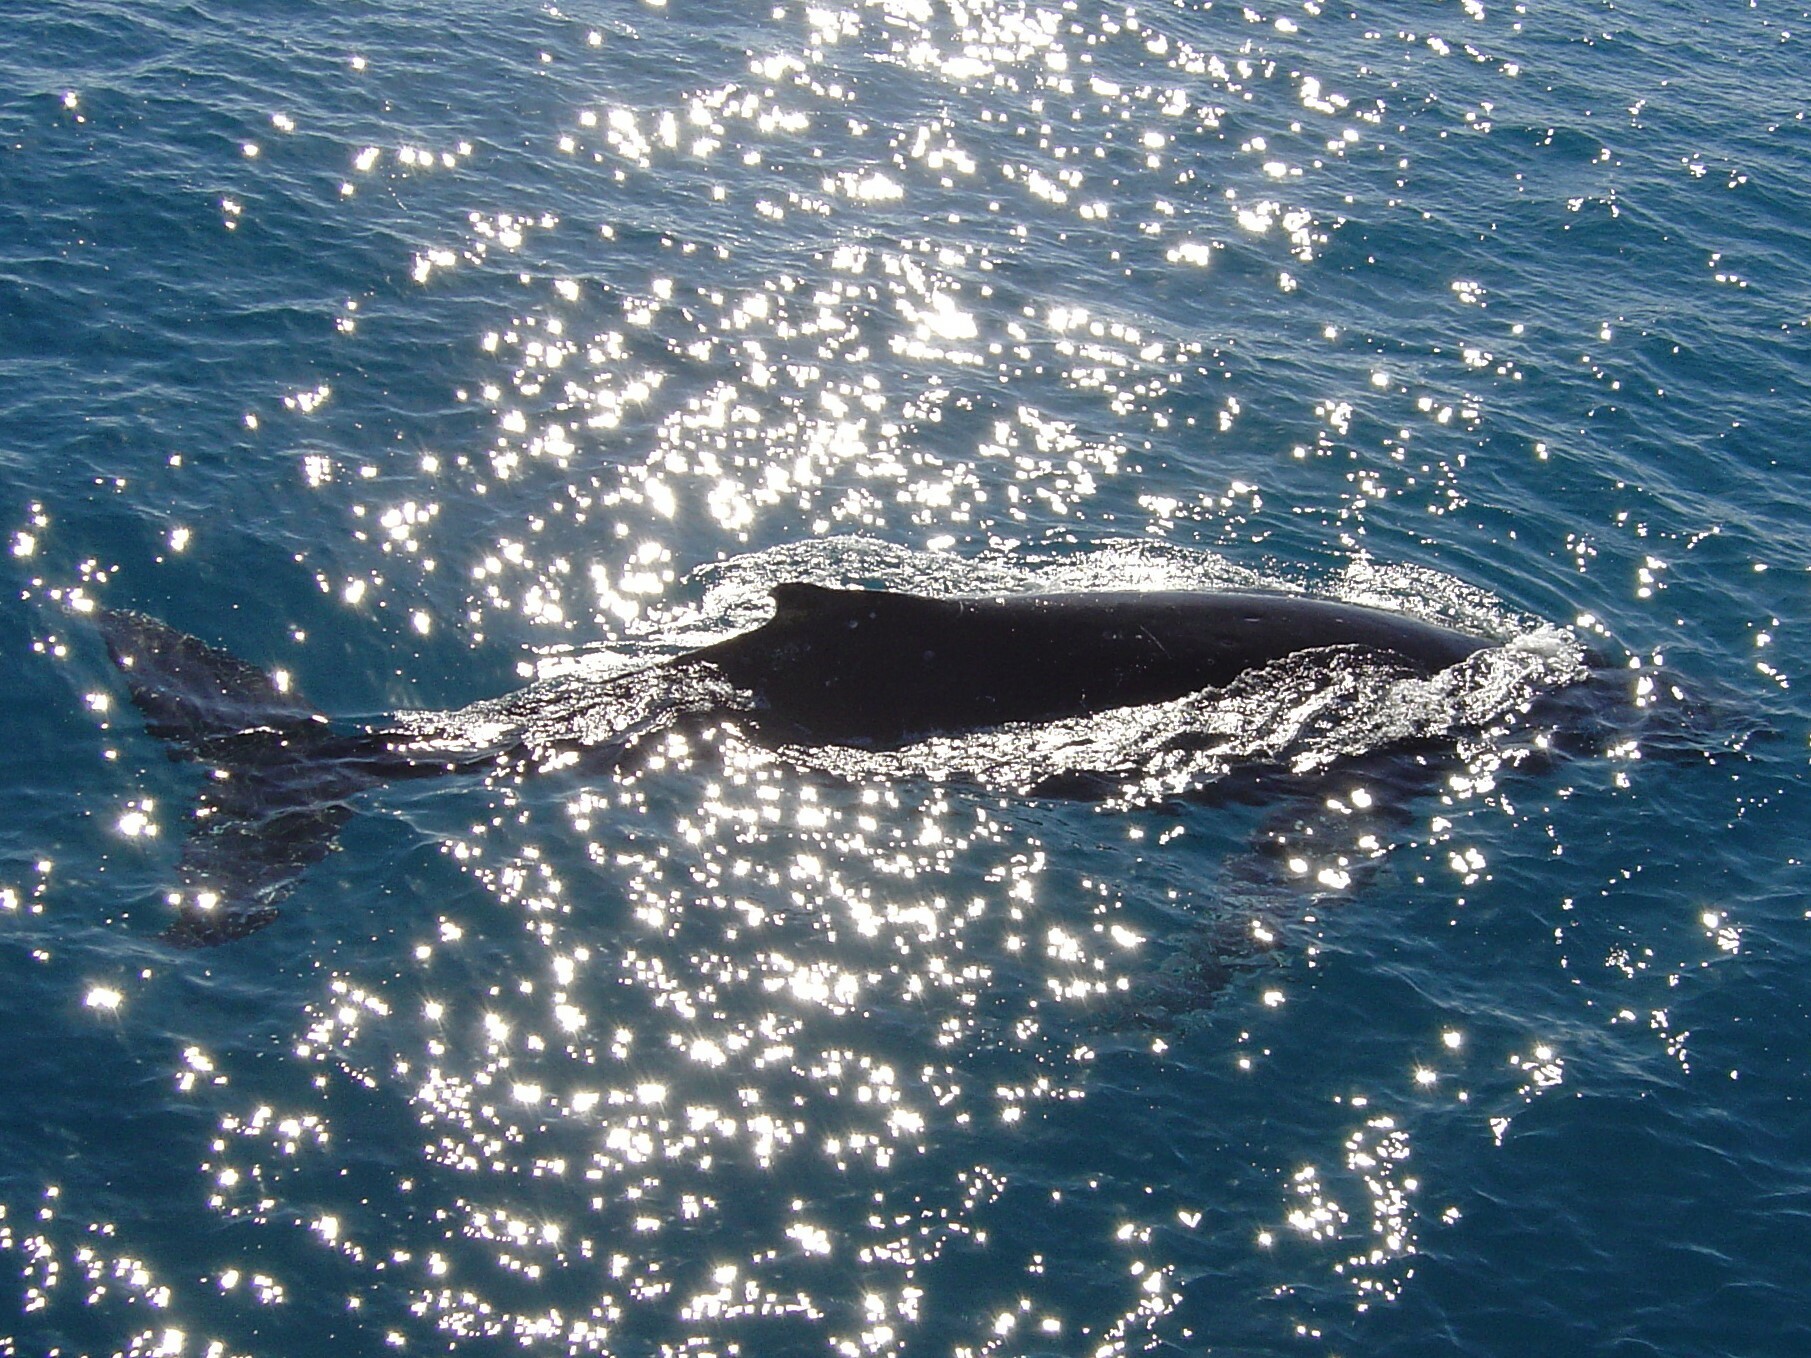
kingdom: Animalia
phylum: Chordata
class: Mammalia
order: Cetacea
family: Balaenopteridae
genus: Megaptera
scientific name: Megaptera novaeangliae
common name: Humpback whale
